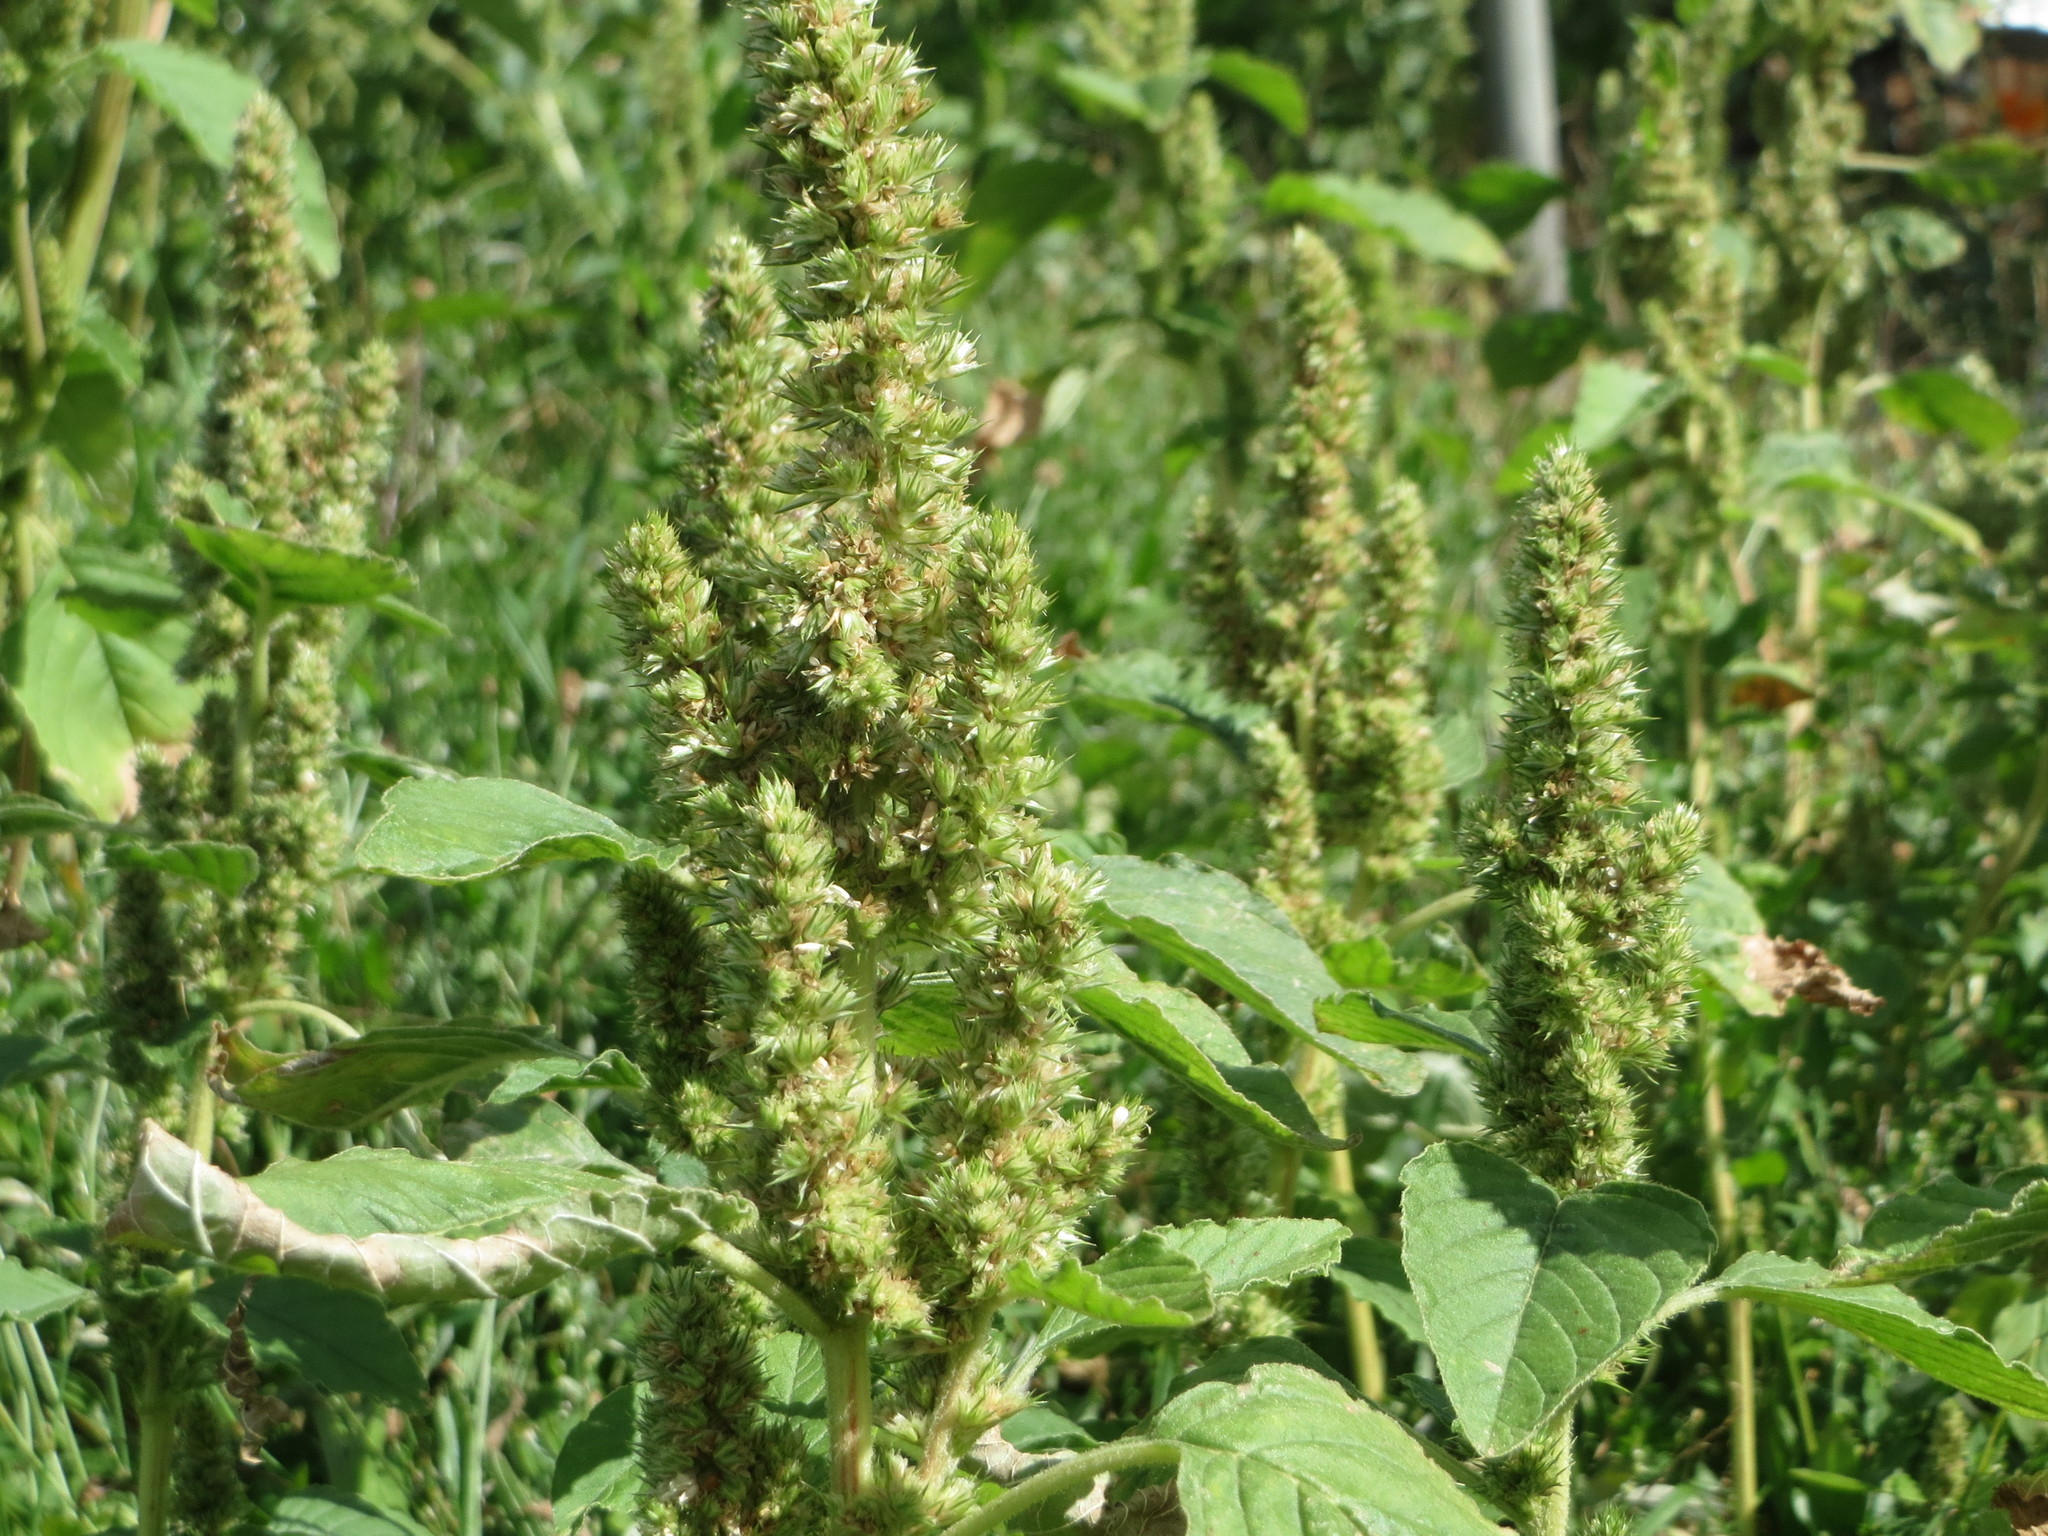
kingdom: Plantae
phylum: Tracheophyta
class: Magnoliopsida
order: Caryophyllales
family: Amaranthaceae
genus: Amaranthus
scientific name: Amaranthus retroflexus
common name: Redroot amaranth
